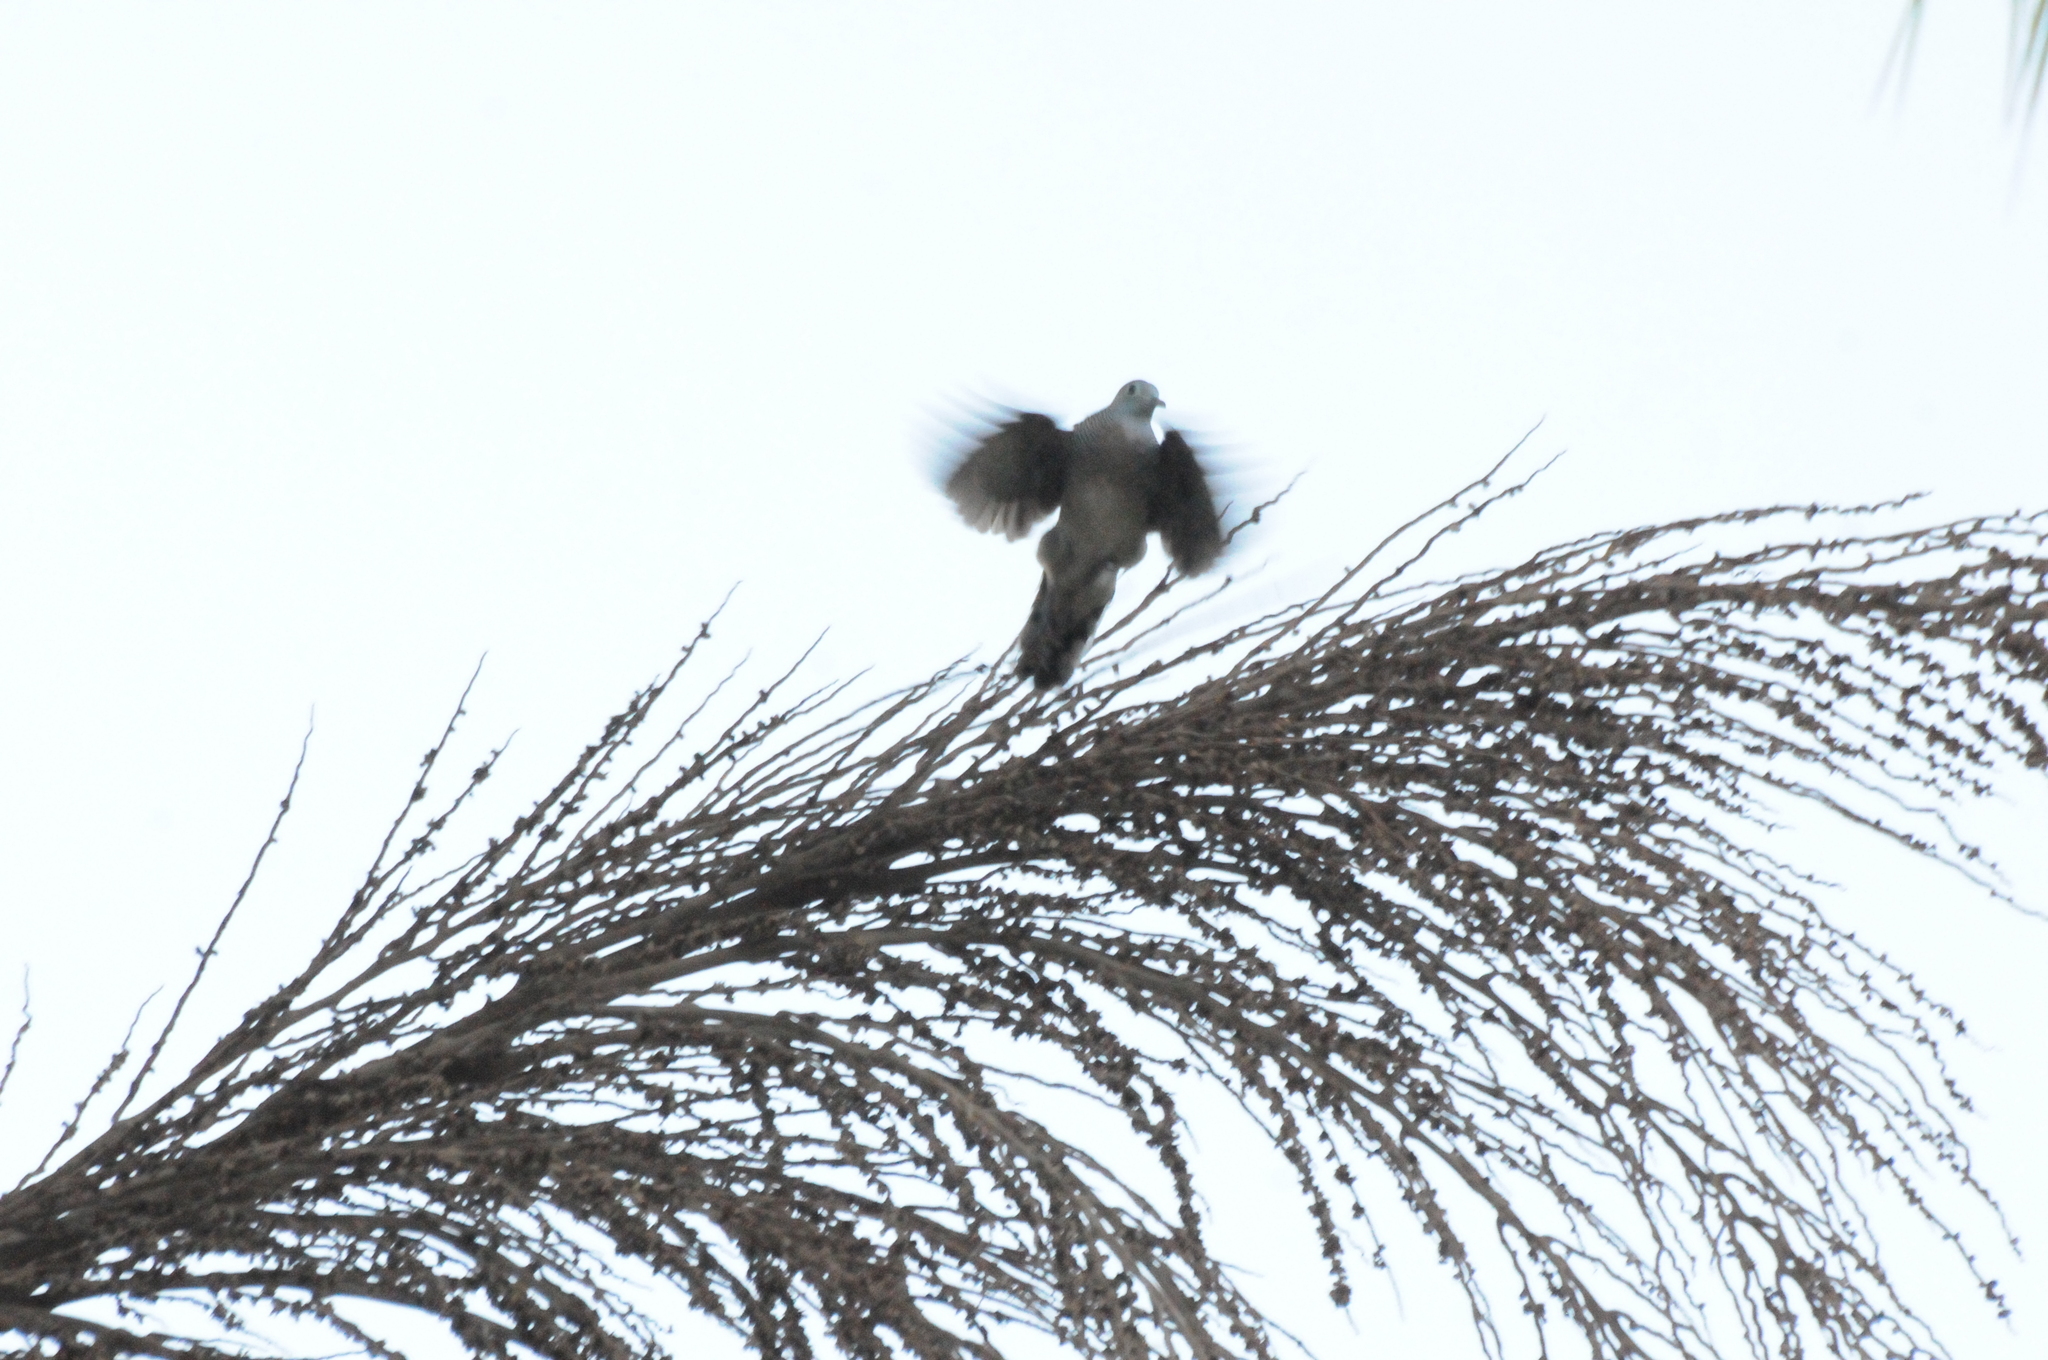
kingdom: Animalia
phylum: Chordata
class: Aves
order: Columbiformes
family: Columbidae
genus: Geopelia
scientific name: Geopelia striata
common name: Zebra dove
